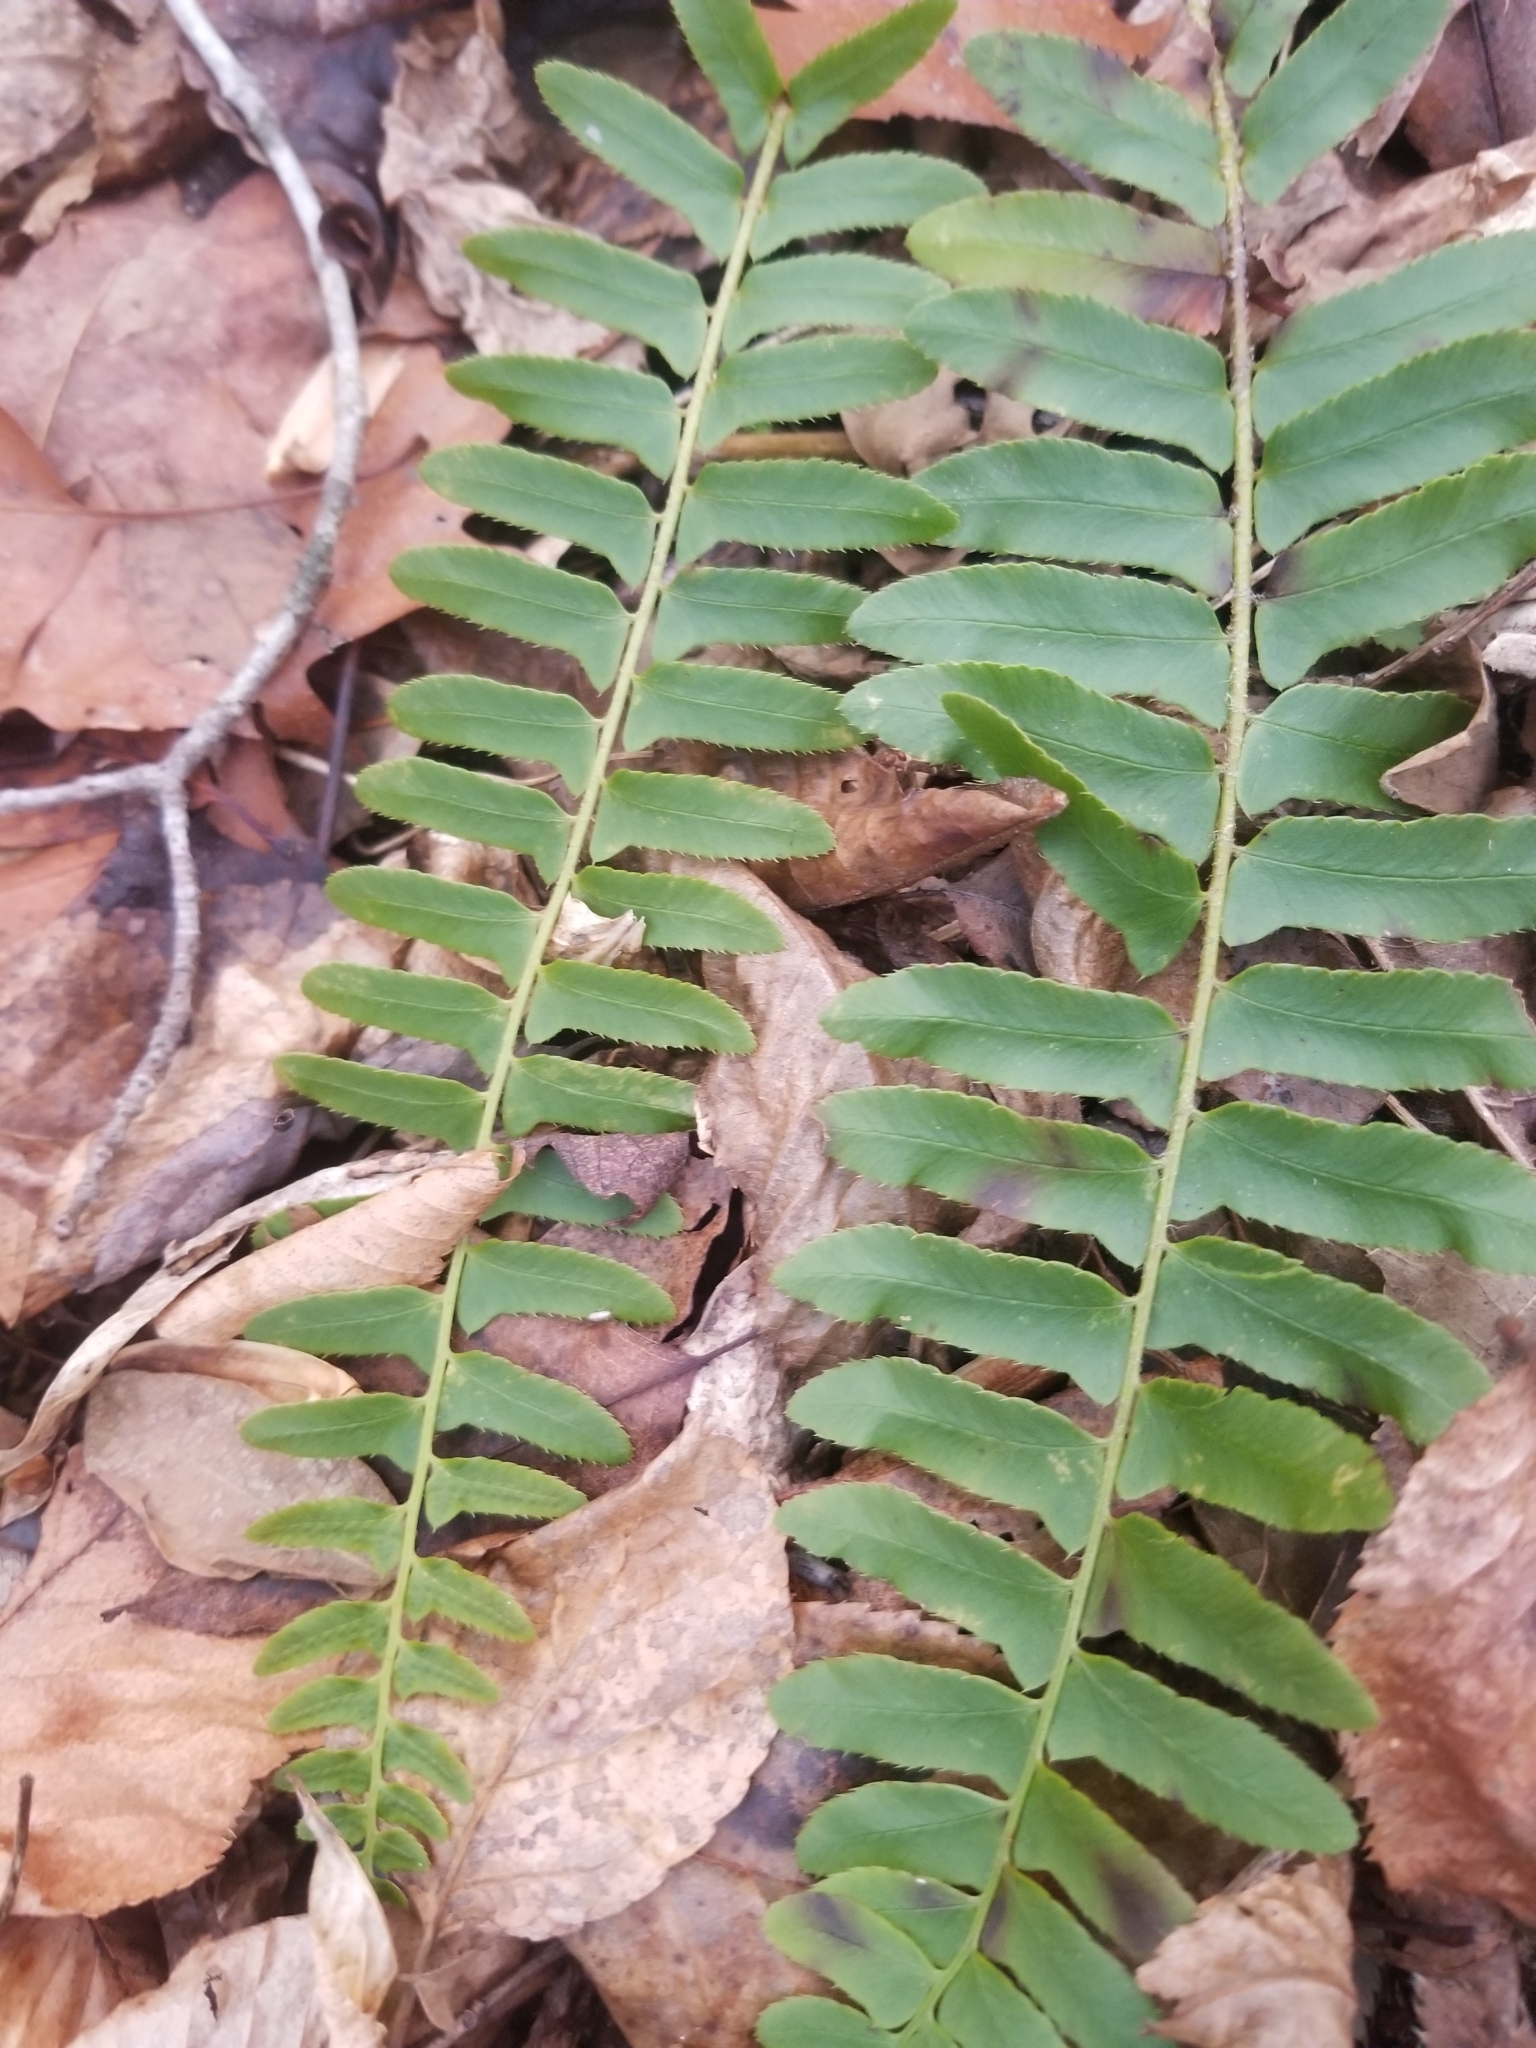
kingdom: Plantae
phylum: Tracheophyta
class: Polypodiopsida
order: Polypodiales
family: Dryopteridaceae
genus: Polystichum
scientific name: Polystichum acrostichoides
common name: Christmas fern
